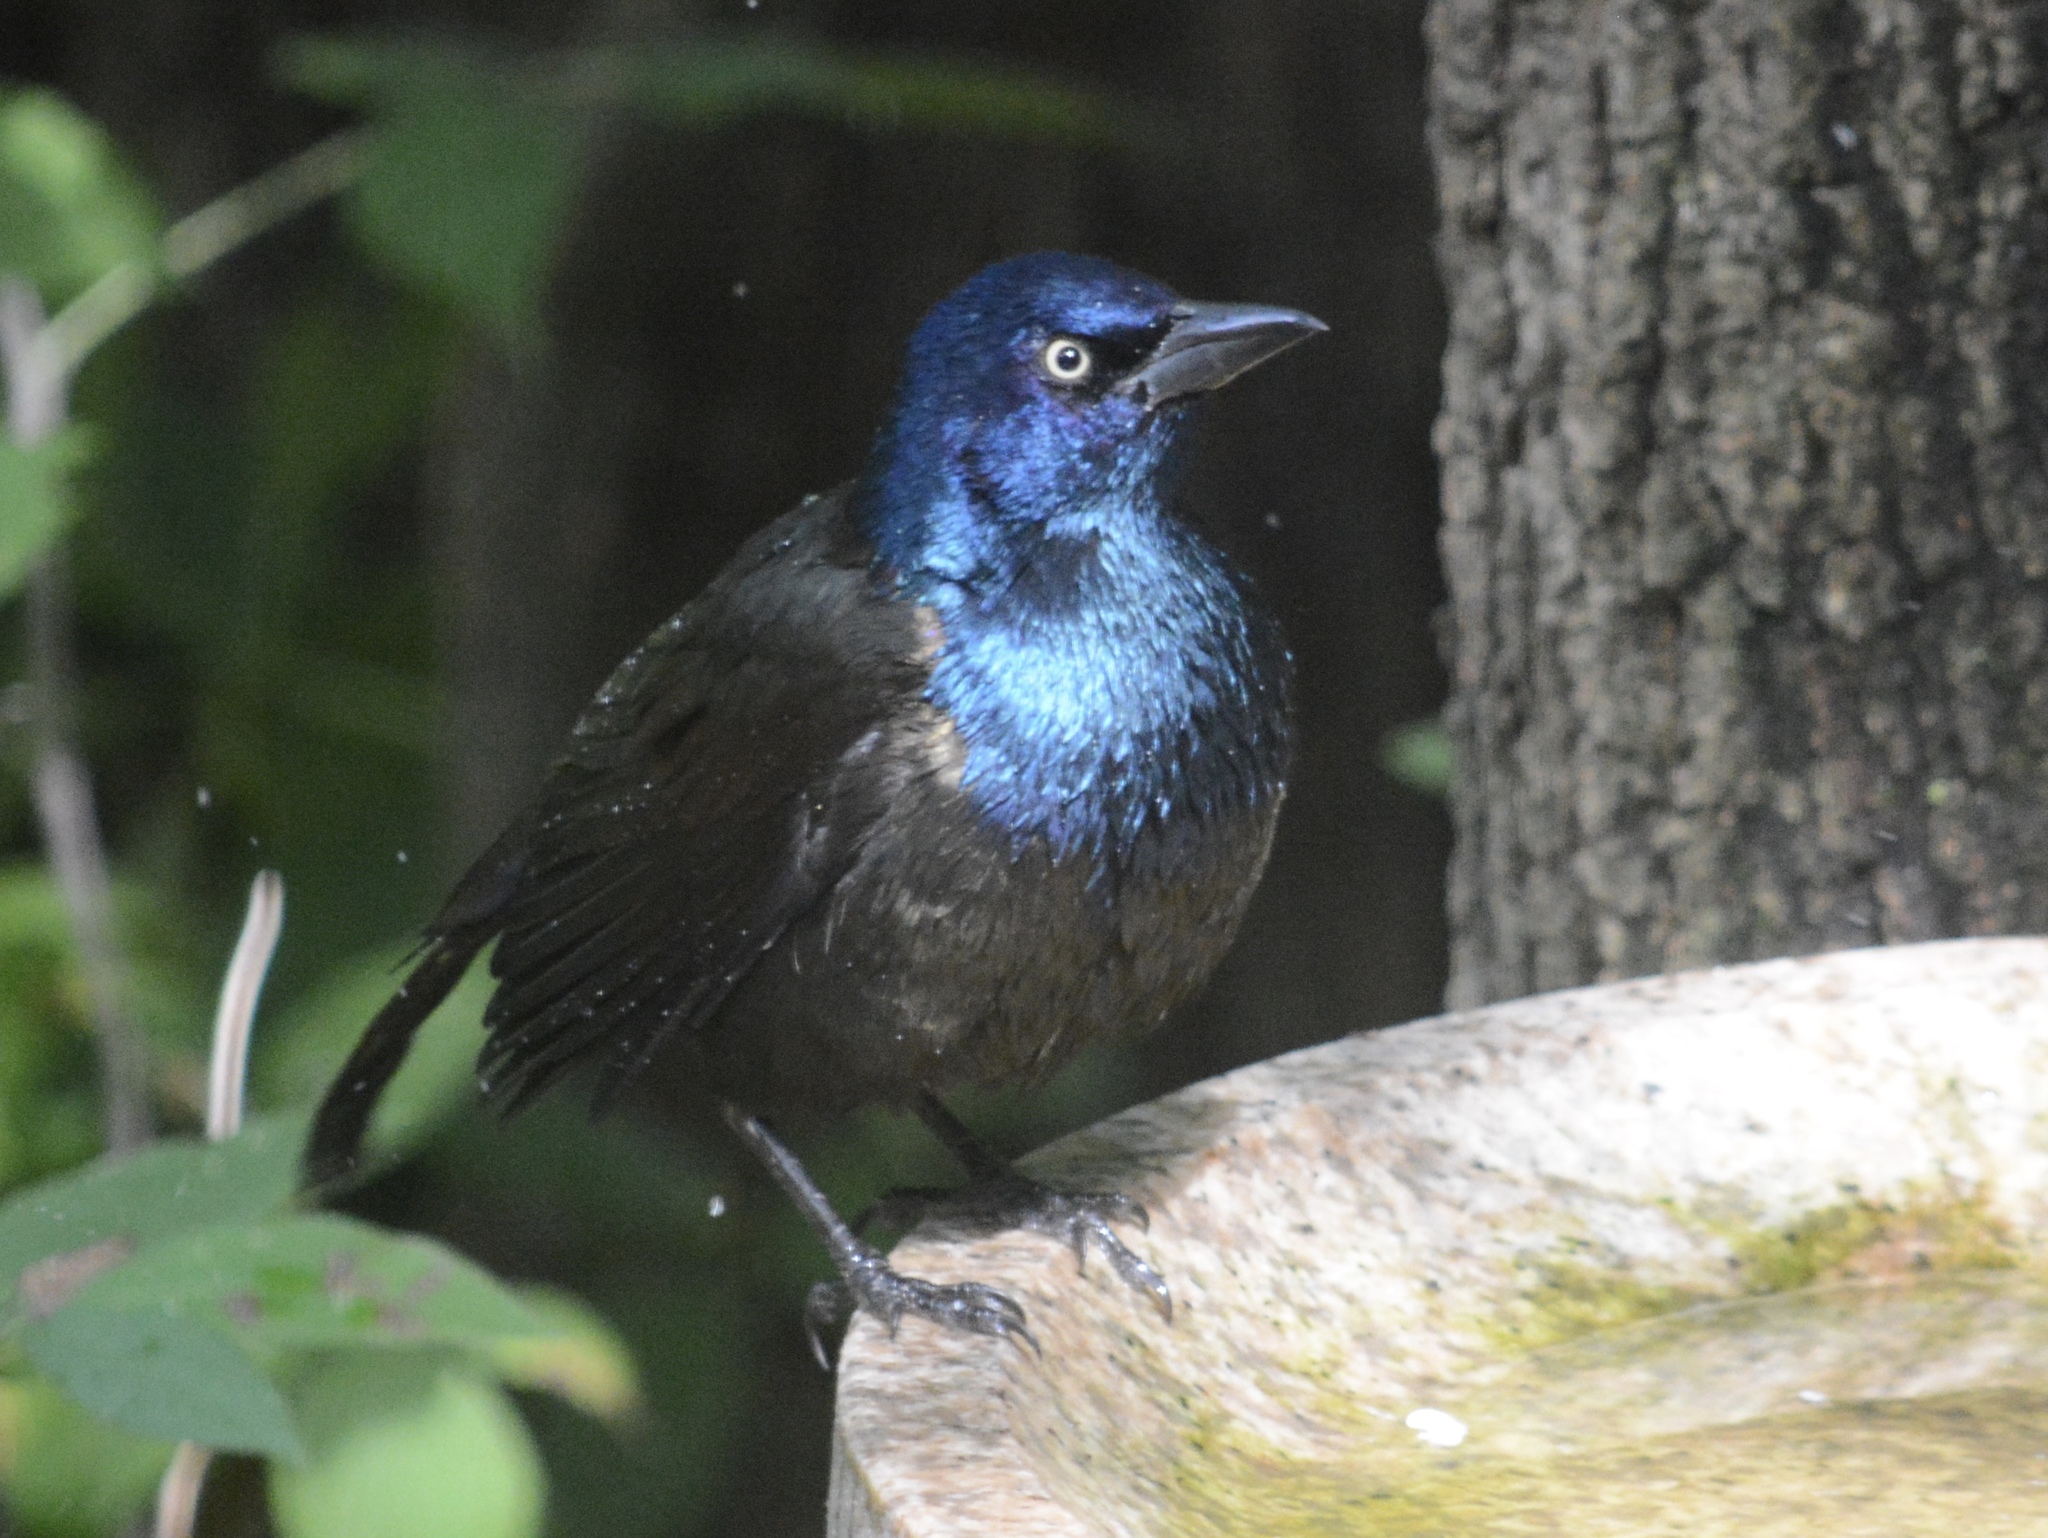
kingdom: Animalia
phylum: Chordata
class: Aves
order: Passeriformes
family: Icteridae
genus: Quiscalus
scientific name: Quiscalus quiscula
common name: Common grackle
